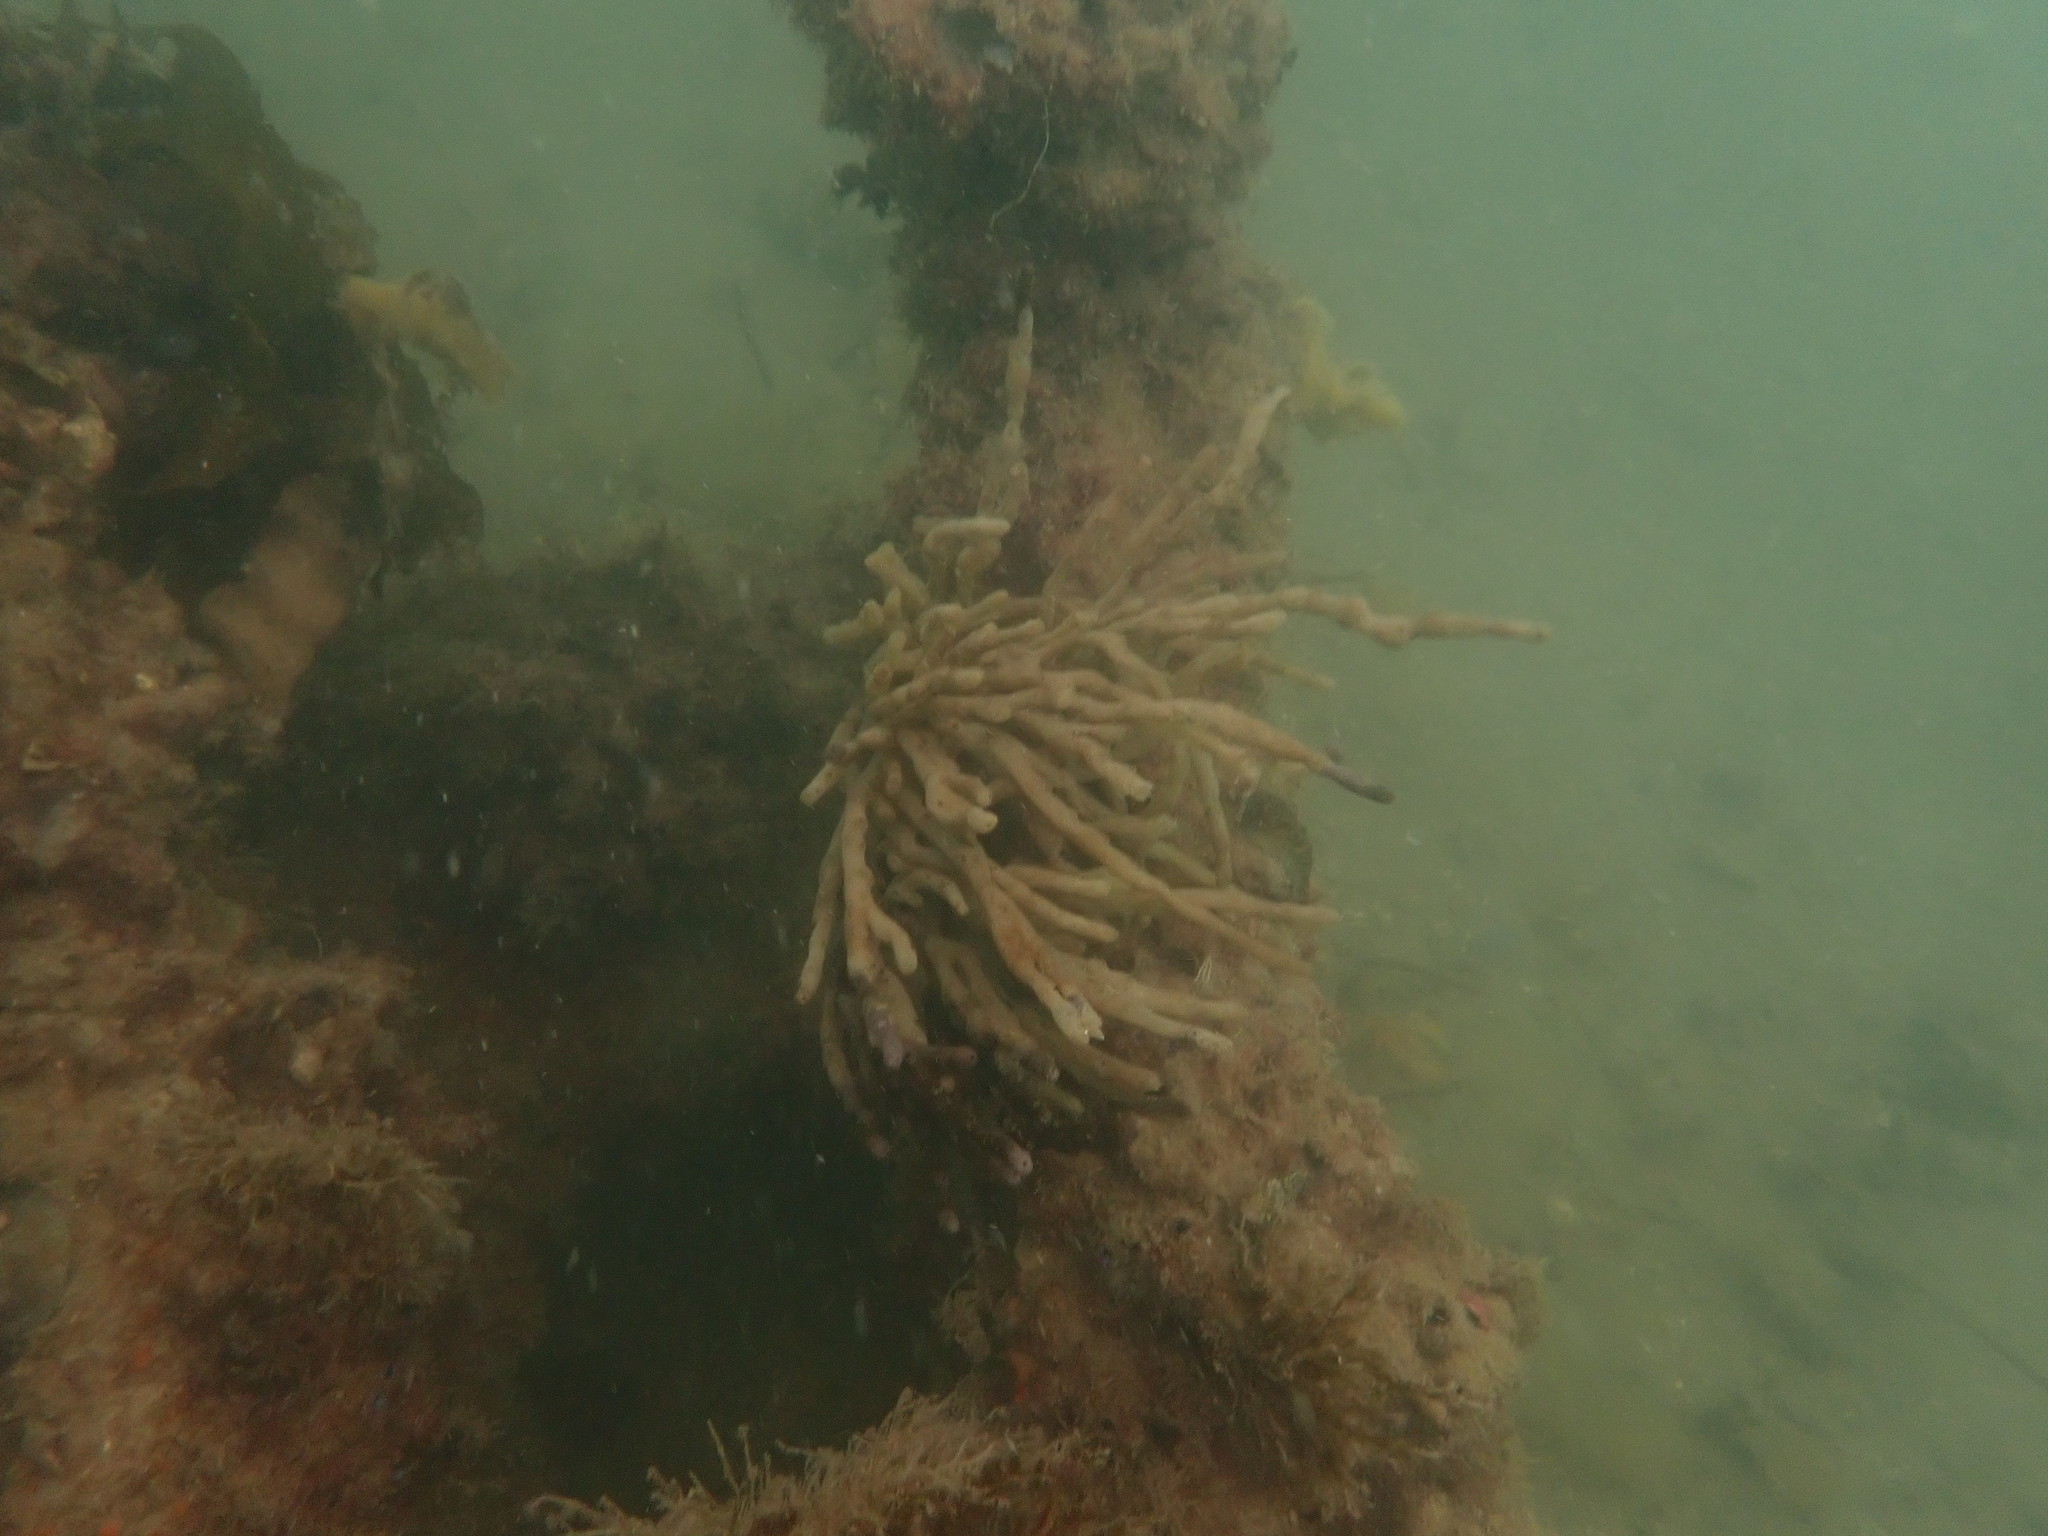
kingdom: Animalia
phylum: Porifera
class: Demospongiae
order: Haplosclerida
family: Callyspongiidae
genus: Callyspongia
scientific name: Callyspongia nuda
